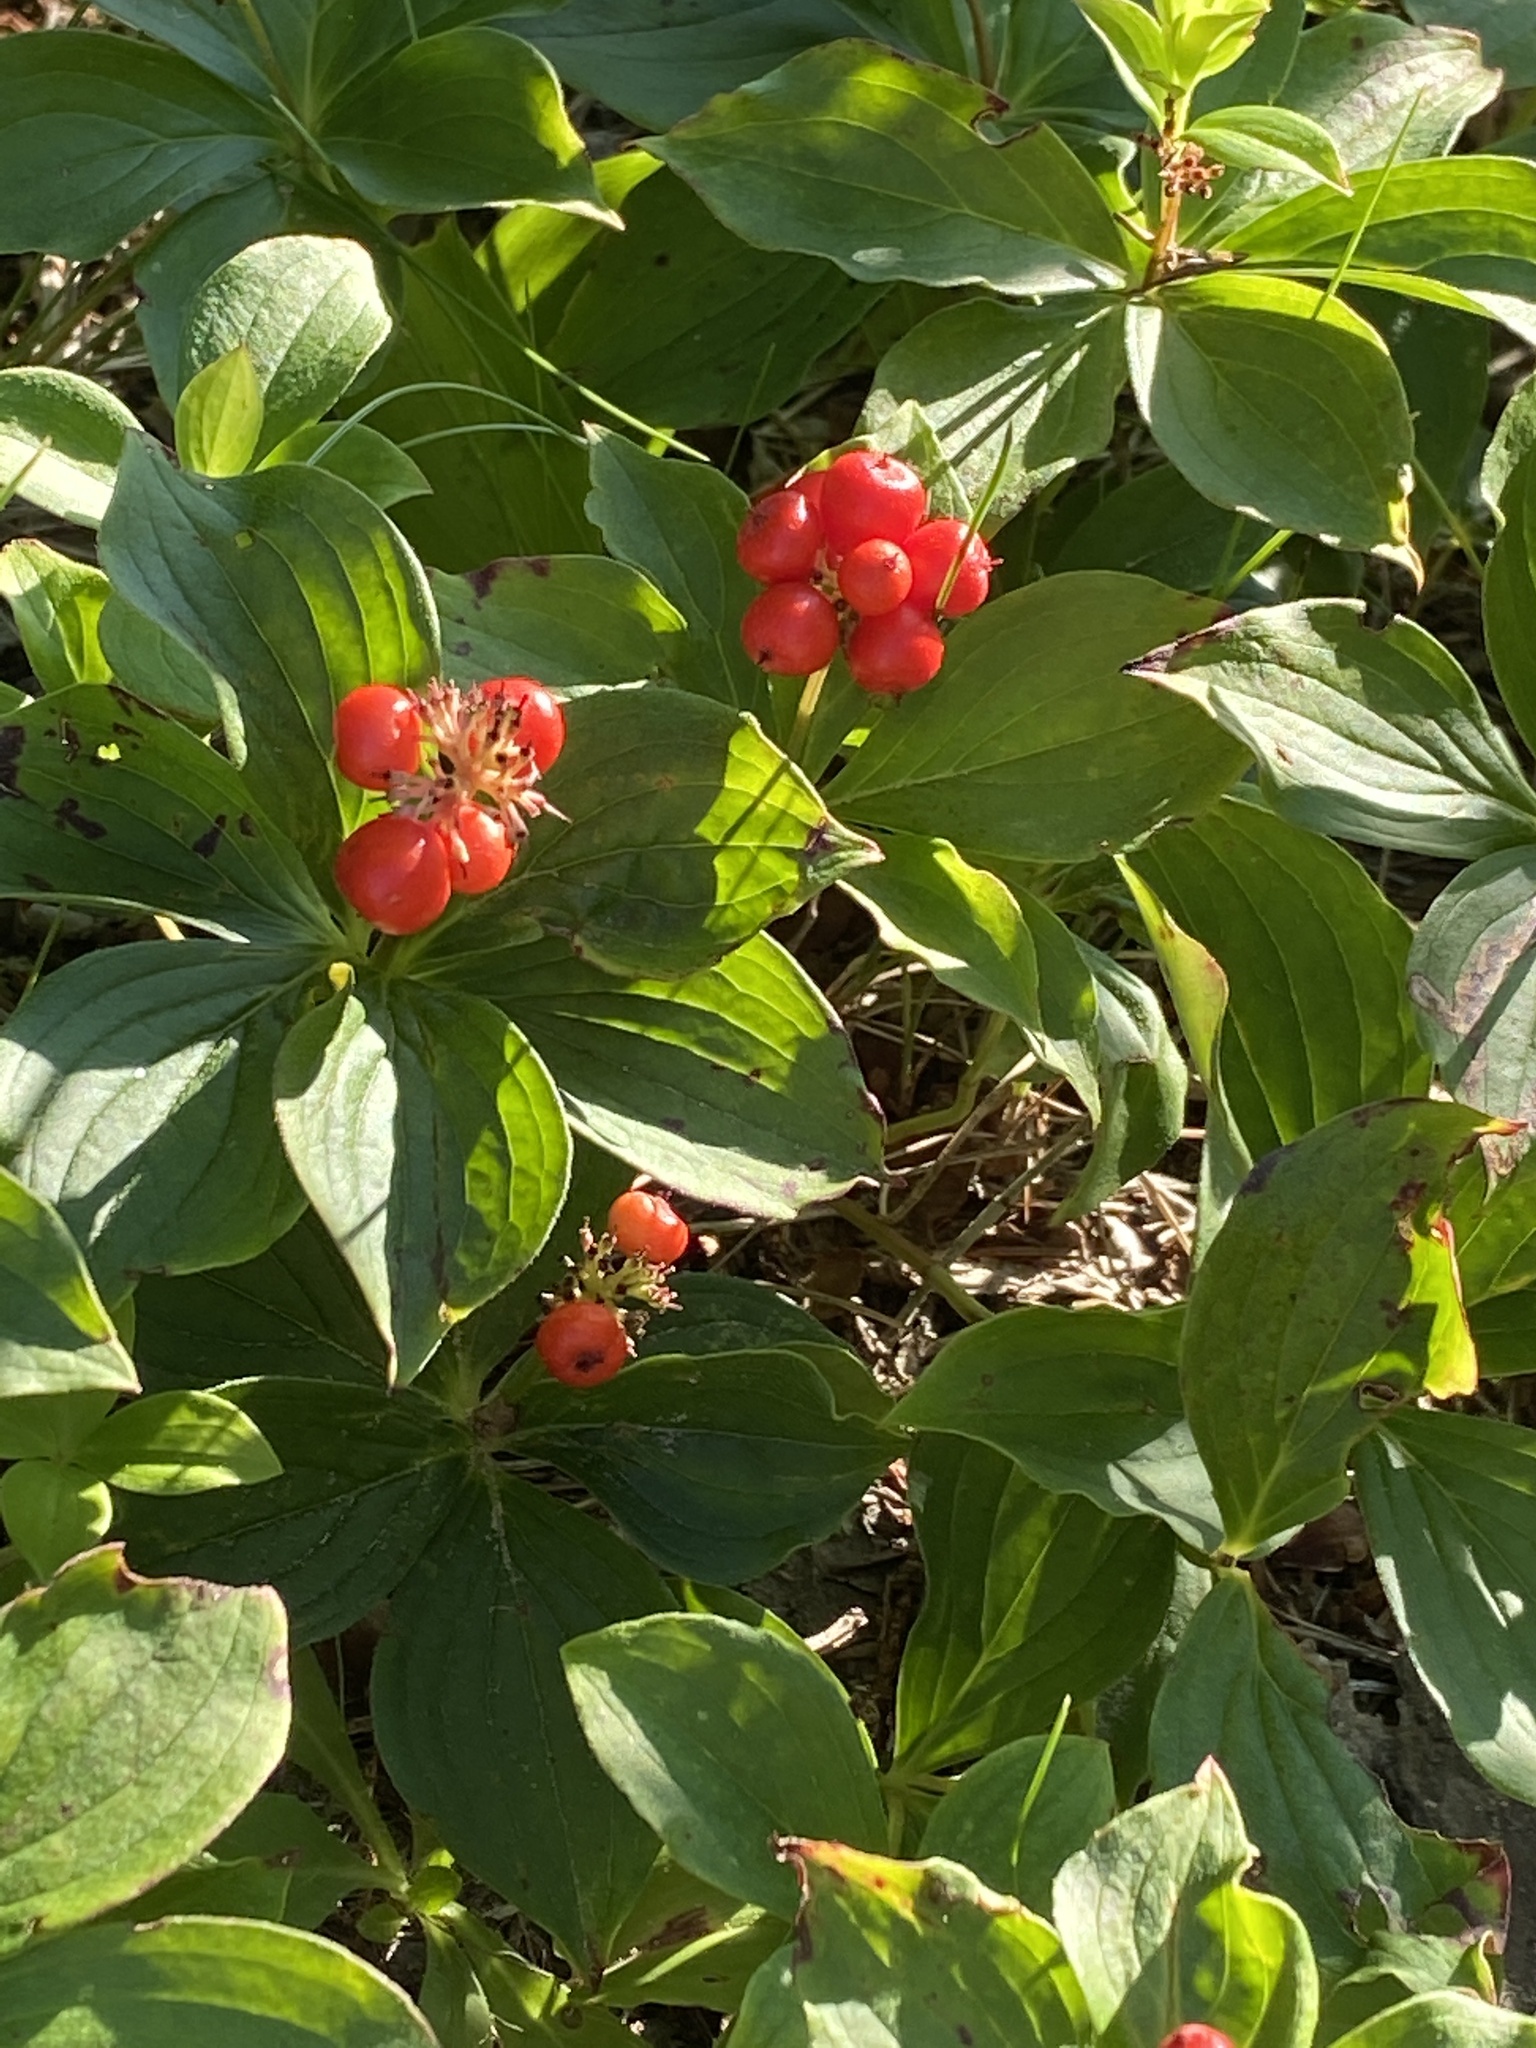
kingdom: Plantae
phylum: Tracheophyta
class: Magnoliopsida
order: Cornales
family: Cornaceae
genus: Cornus
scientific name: Cornus canadensis
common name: Creeping dogwood
